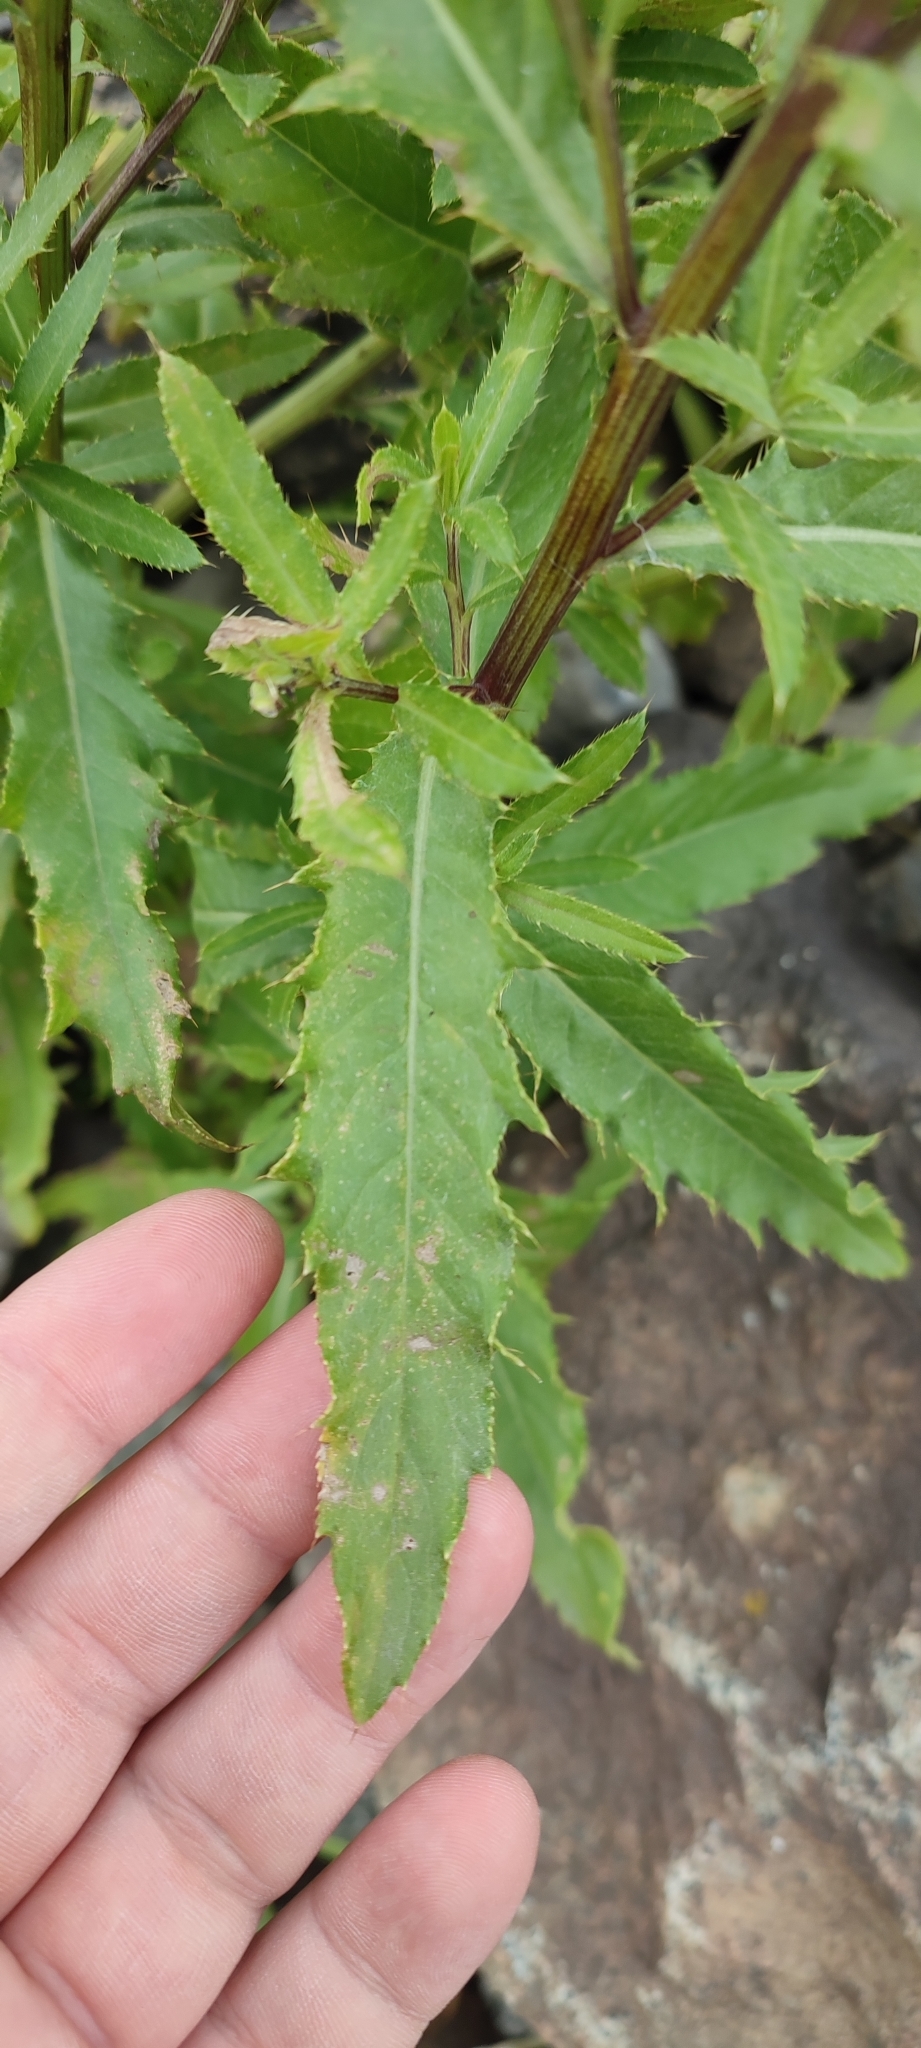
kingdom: Plantae
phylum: Tracheophyta
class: Magnoliopsida
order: Asterales
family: Asteraceae
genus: Cirsium
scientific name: Cirsium arvense
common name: Creeping thistle
